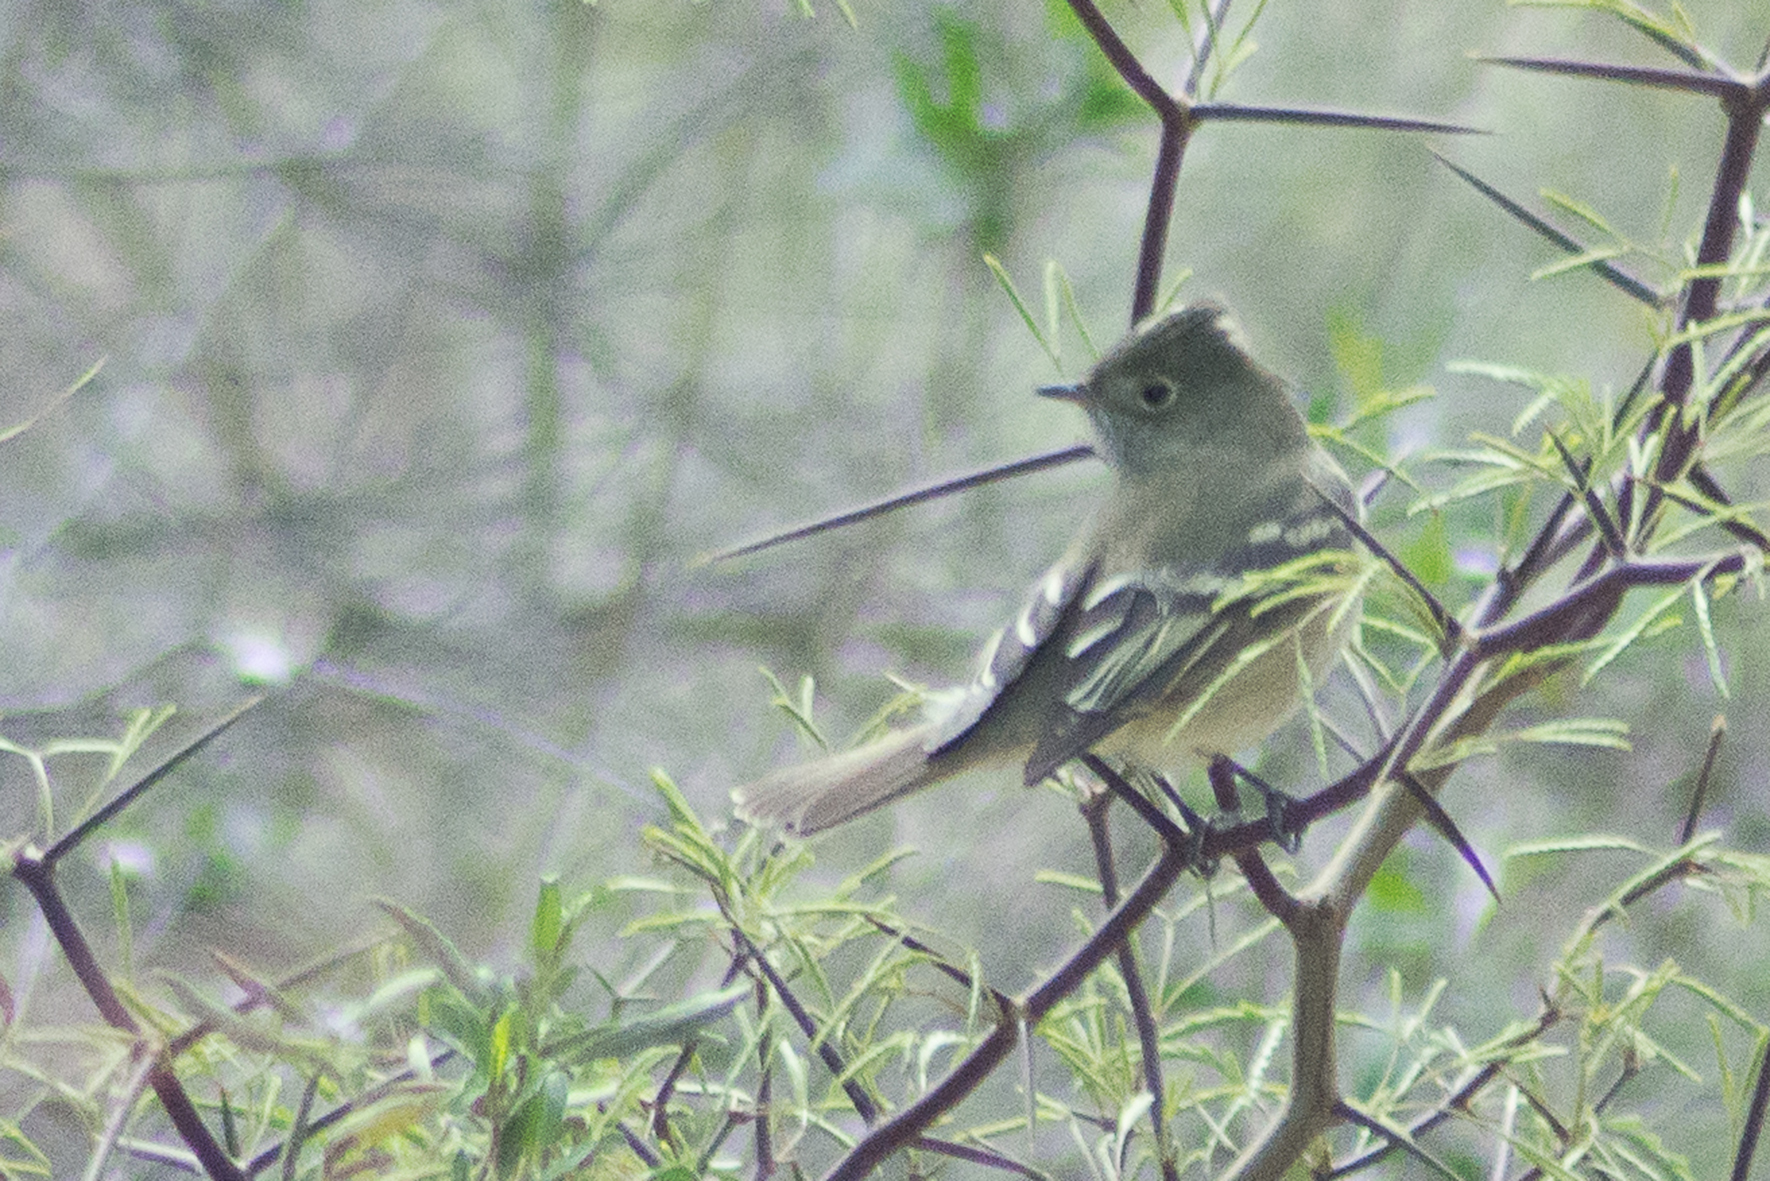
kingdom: Animalia
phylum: Chordata
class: Aves
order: Passeriformes
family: Tyrannidae
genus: Elaenia
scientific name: Elaenia albiceps
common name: White-crested elaenia
